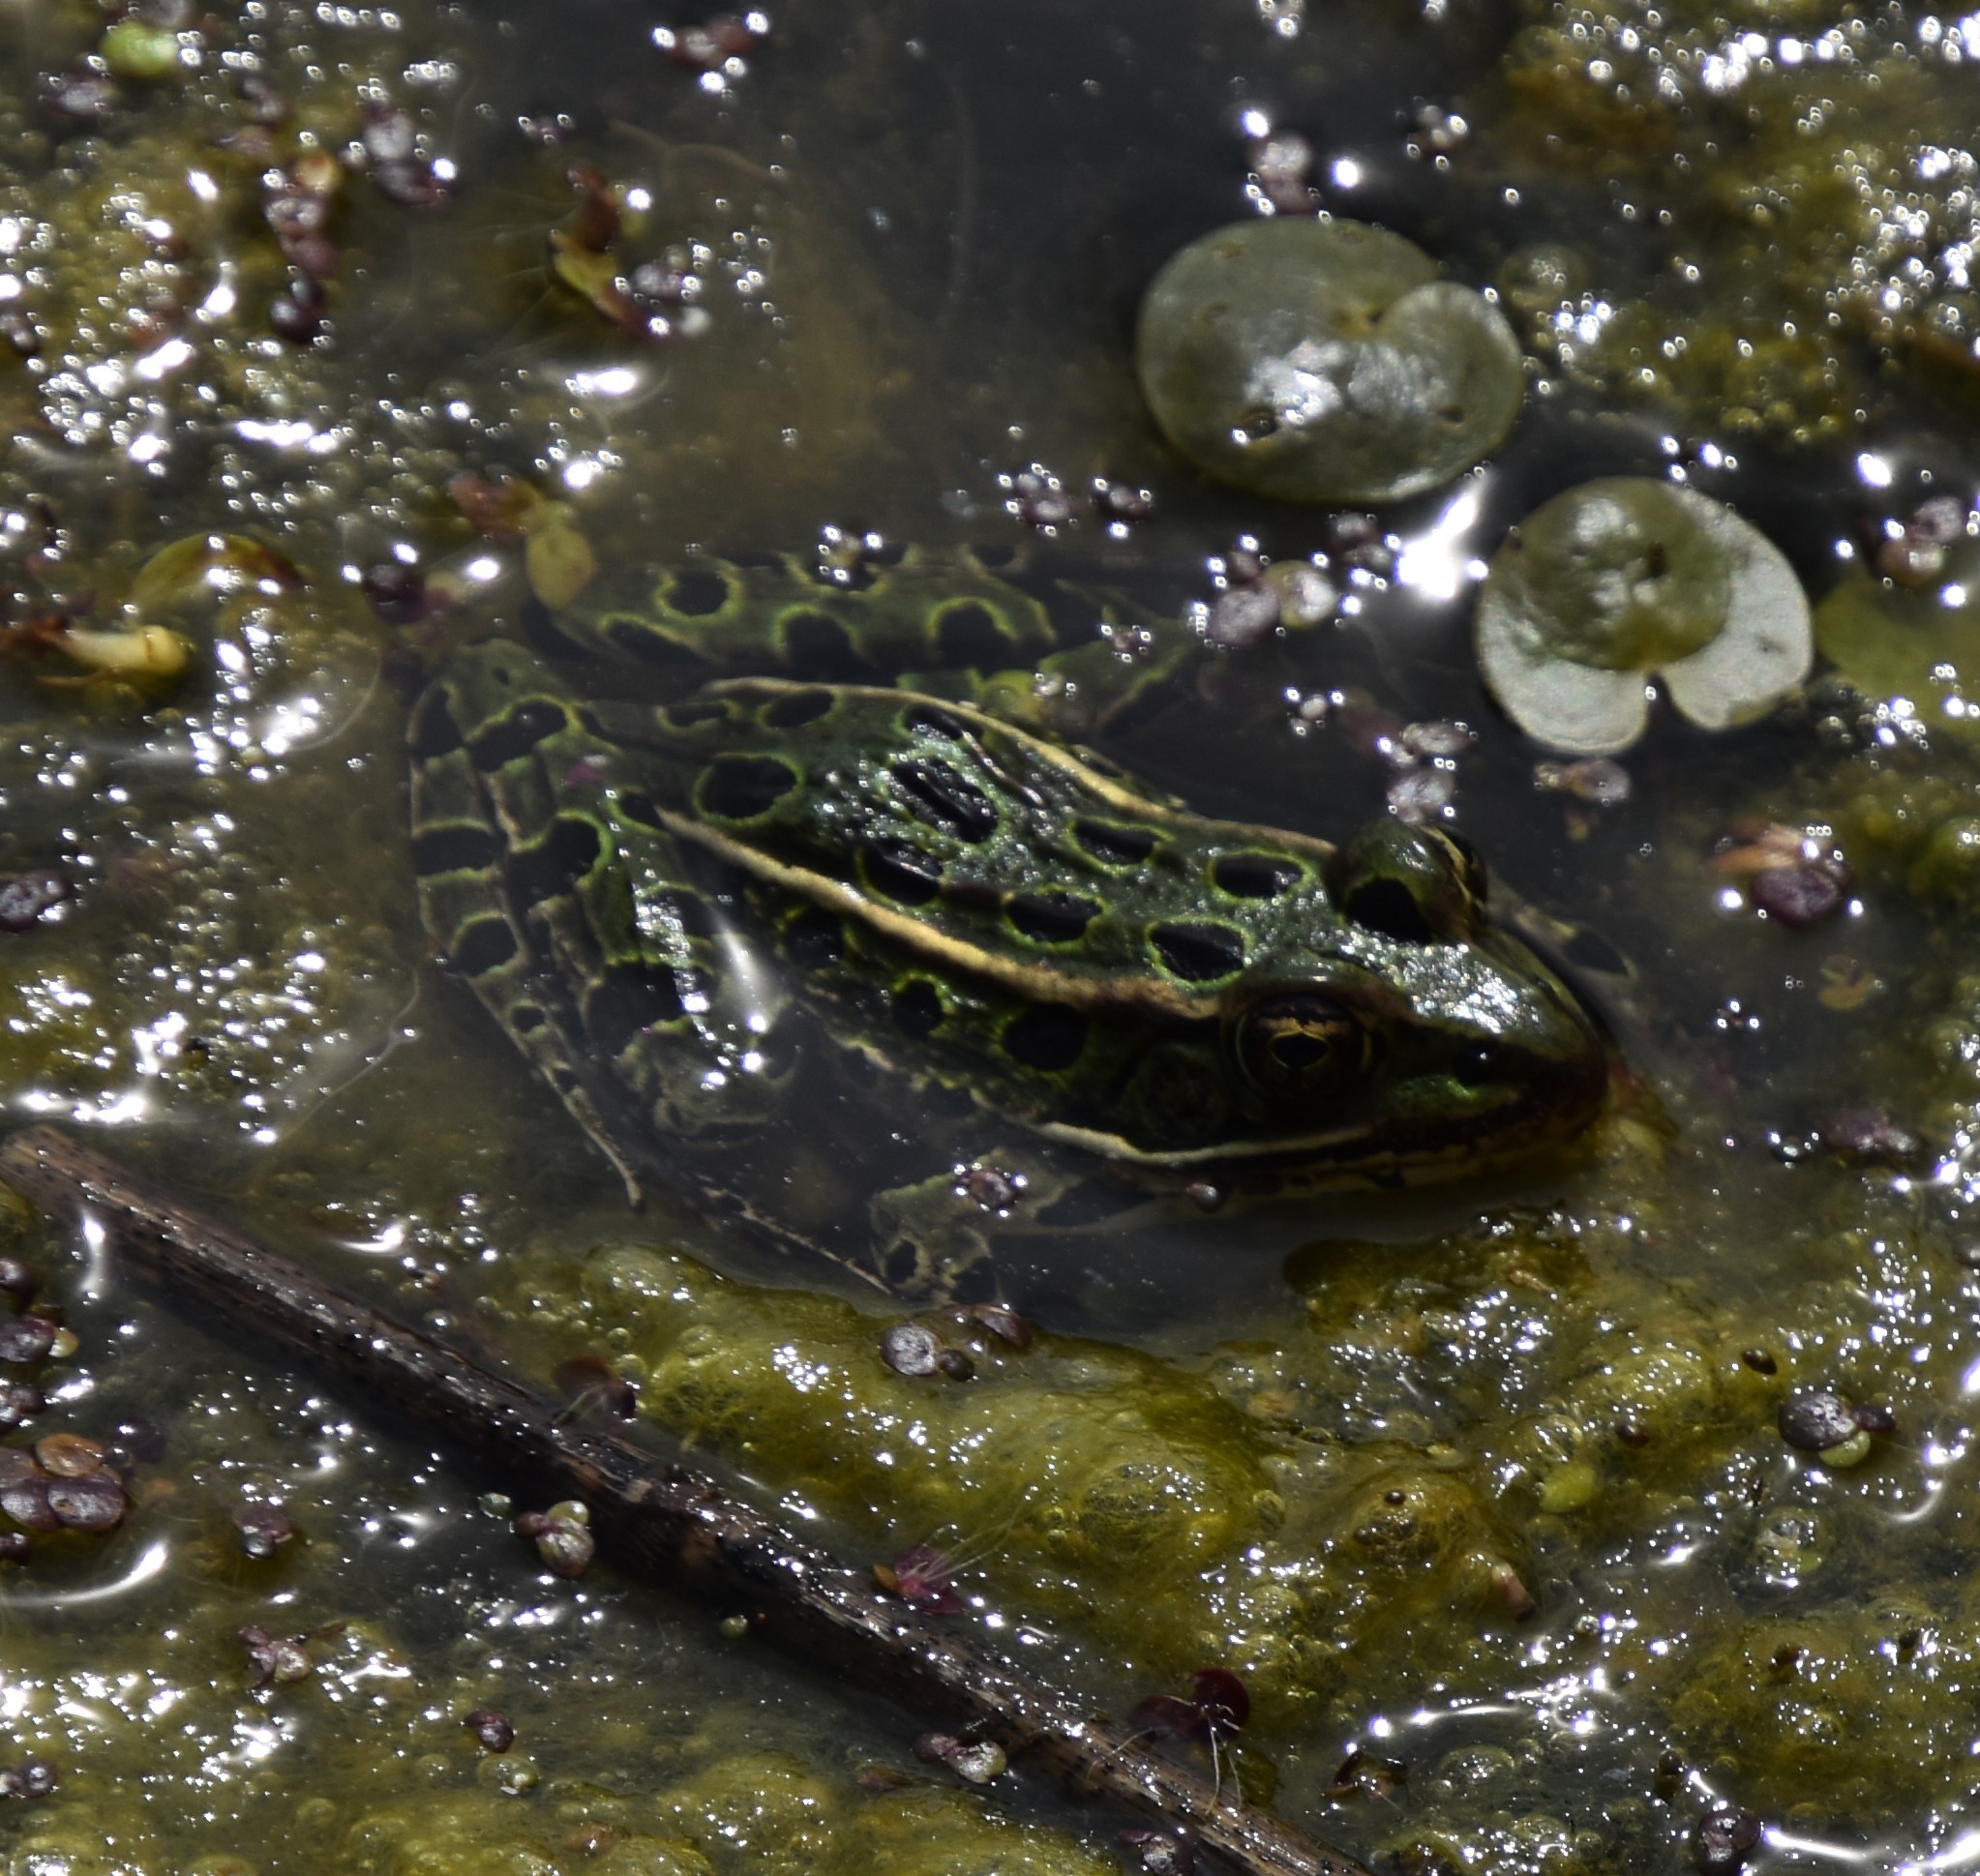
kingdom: Animalia
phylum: Chordata
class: Amphibia
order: Anura
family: Ranidae
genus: Lithobates
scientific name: Lithobates pipiens
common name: Northern leopard frog
